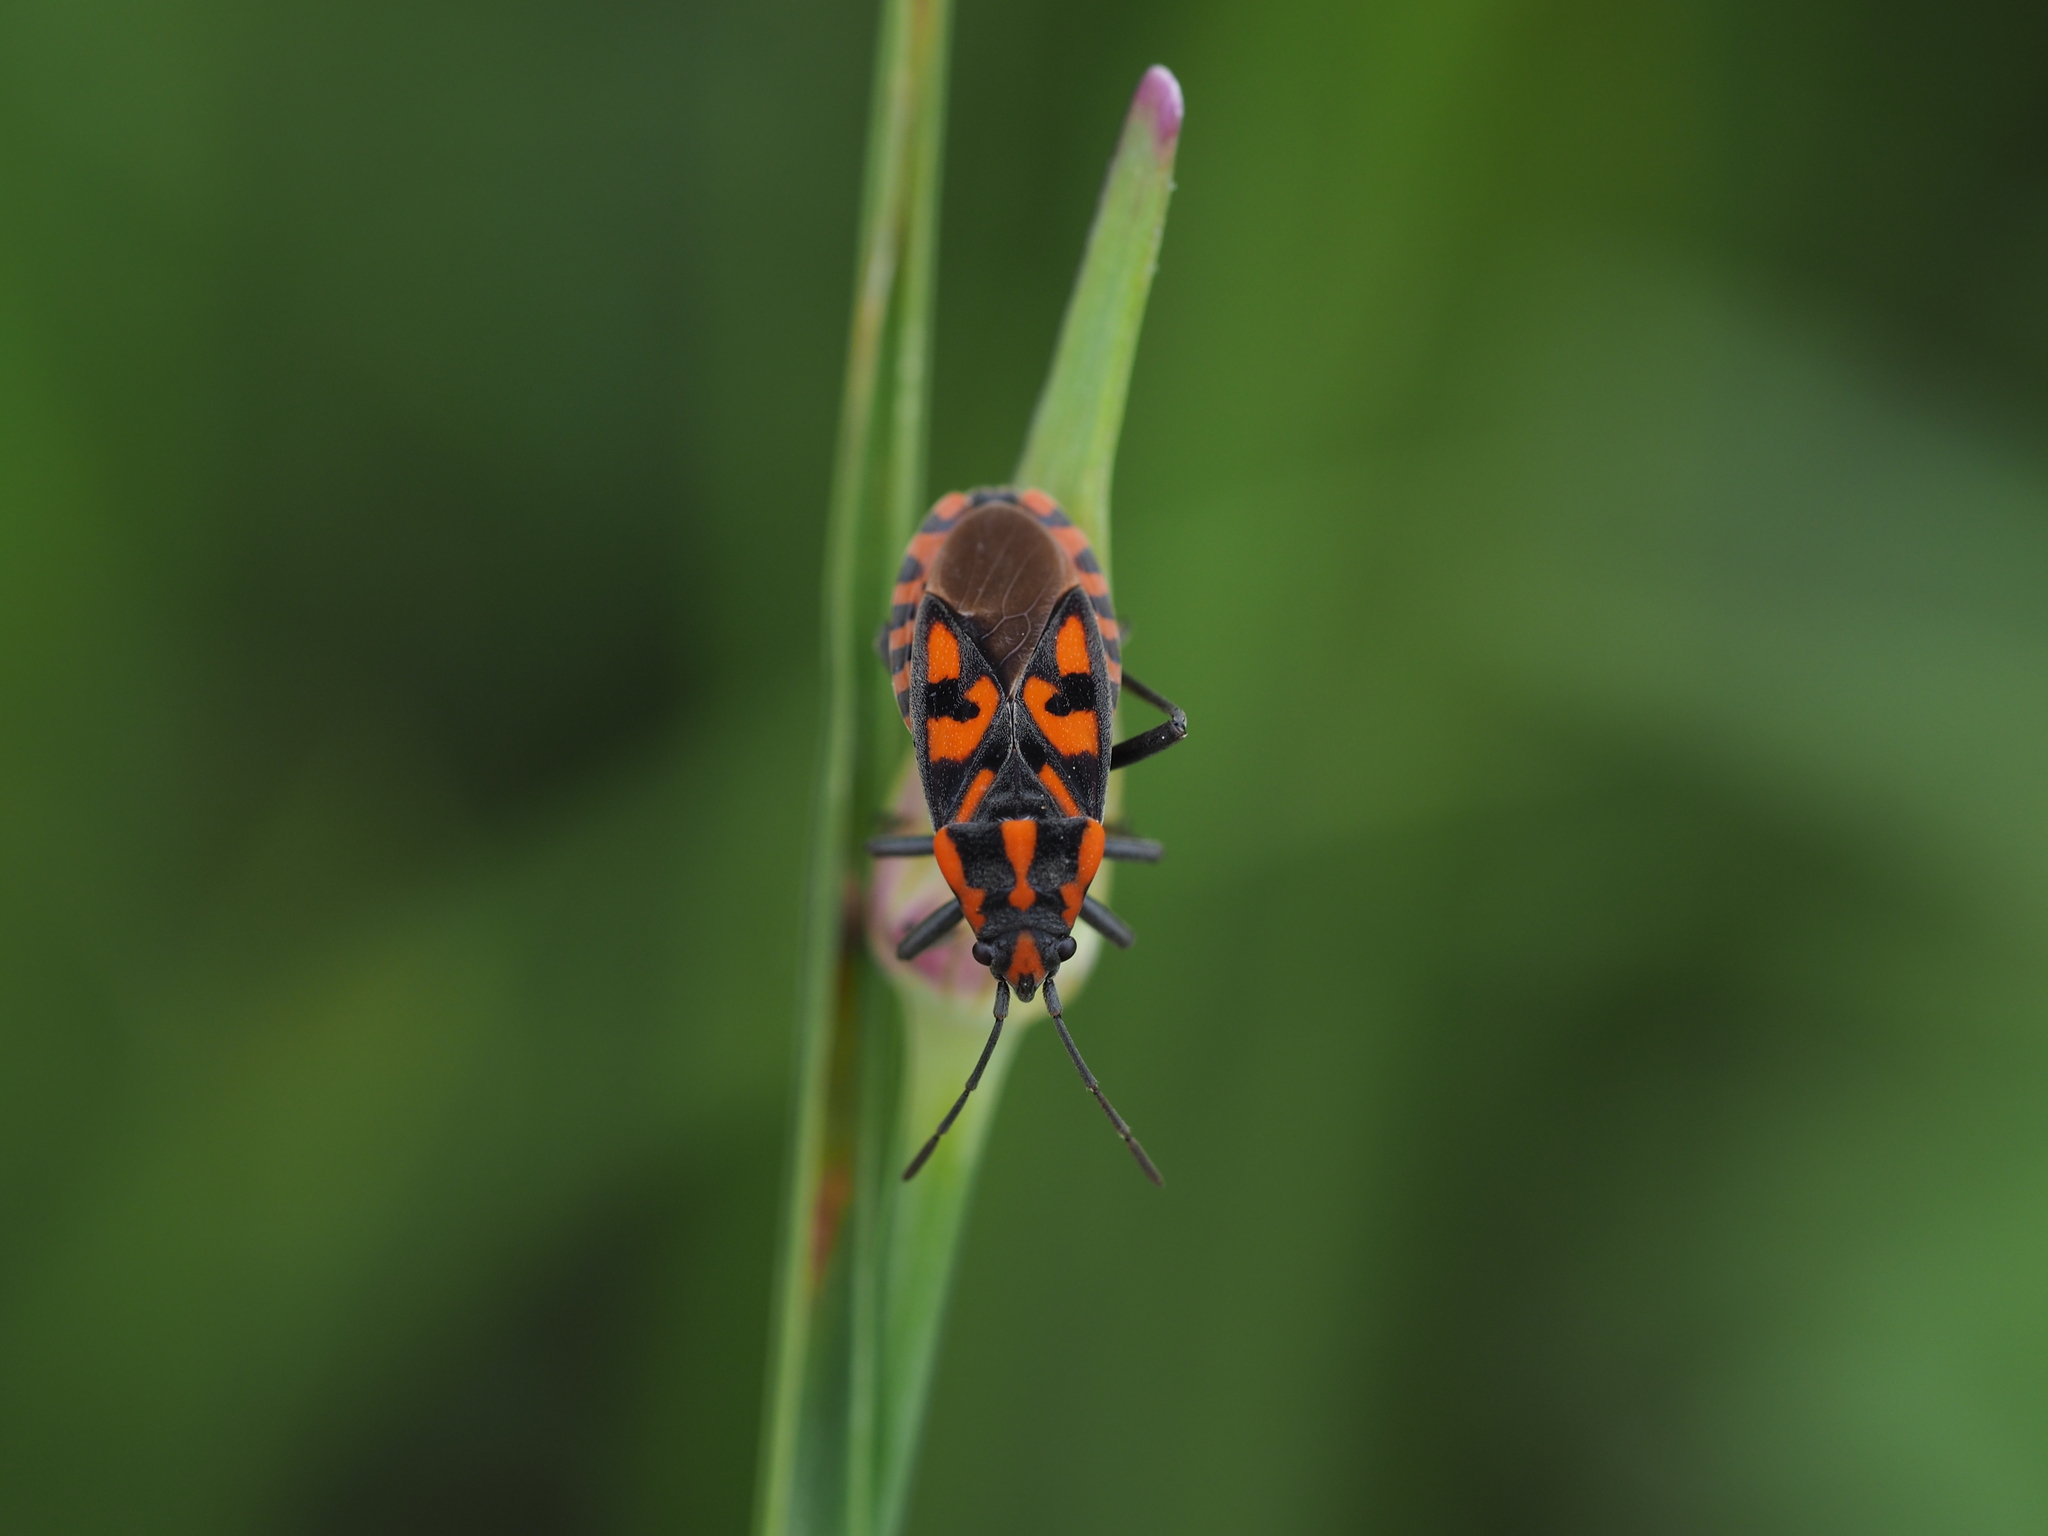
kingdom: Animalia
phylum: Arthropoda
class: Insecta
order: Hemiptera
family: Lygaeidae
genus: Spilostethus
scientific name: Spilostethus saxatilis
